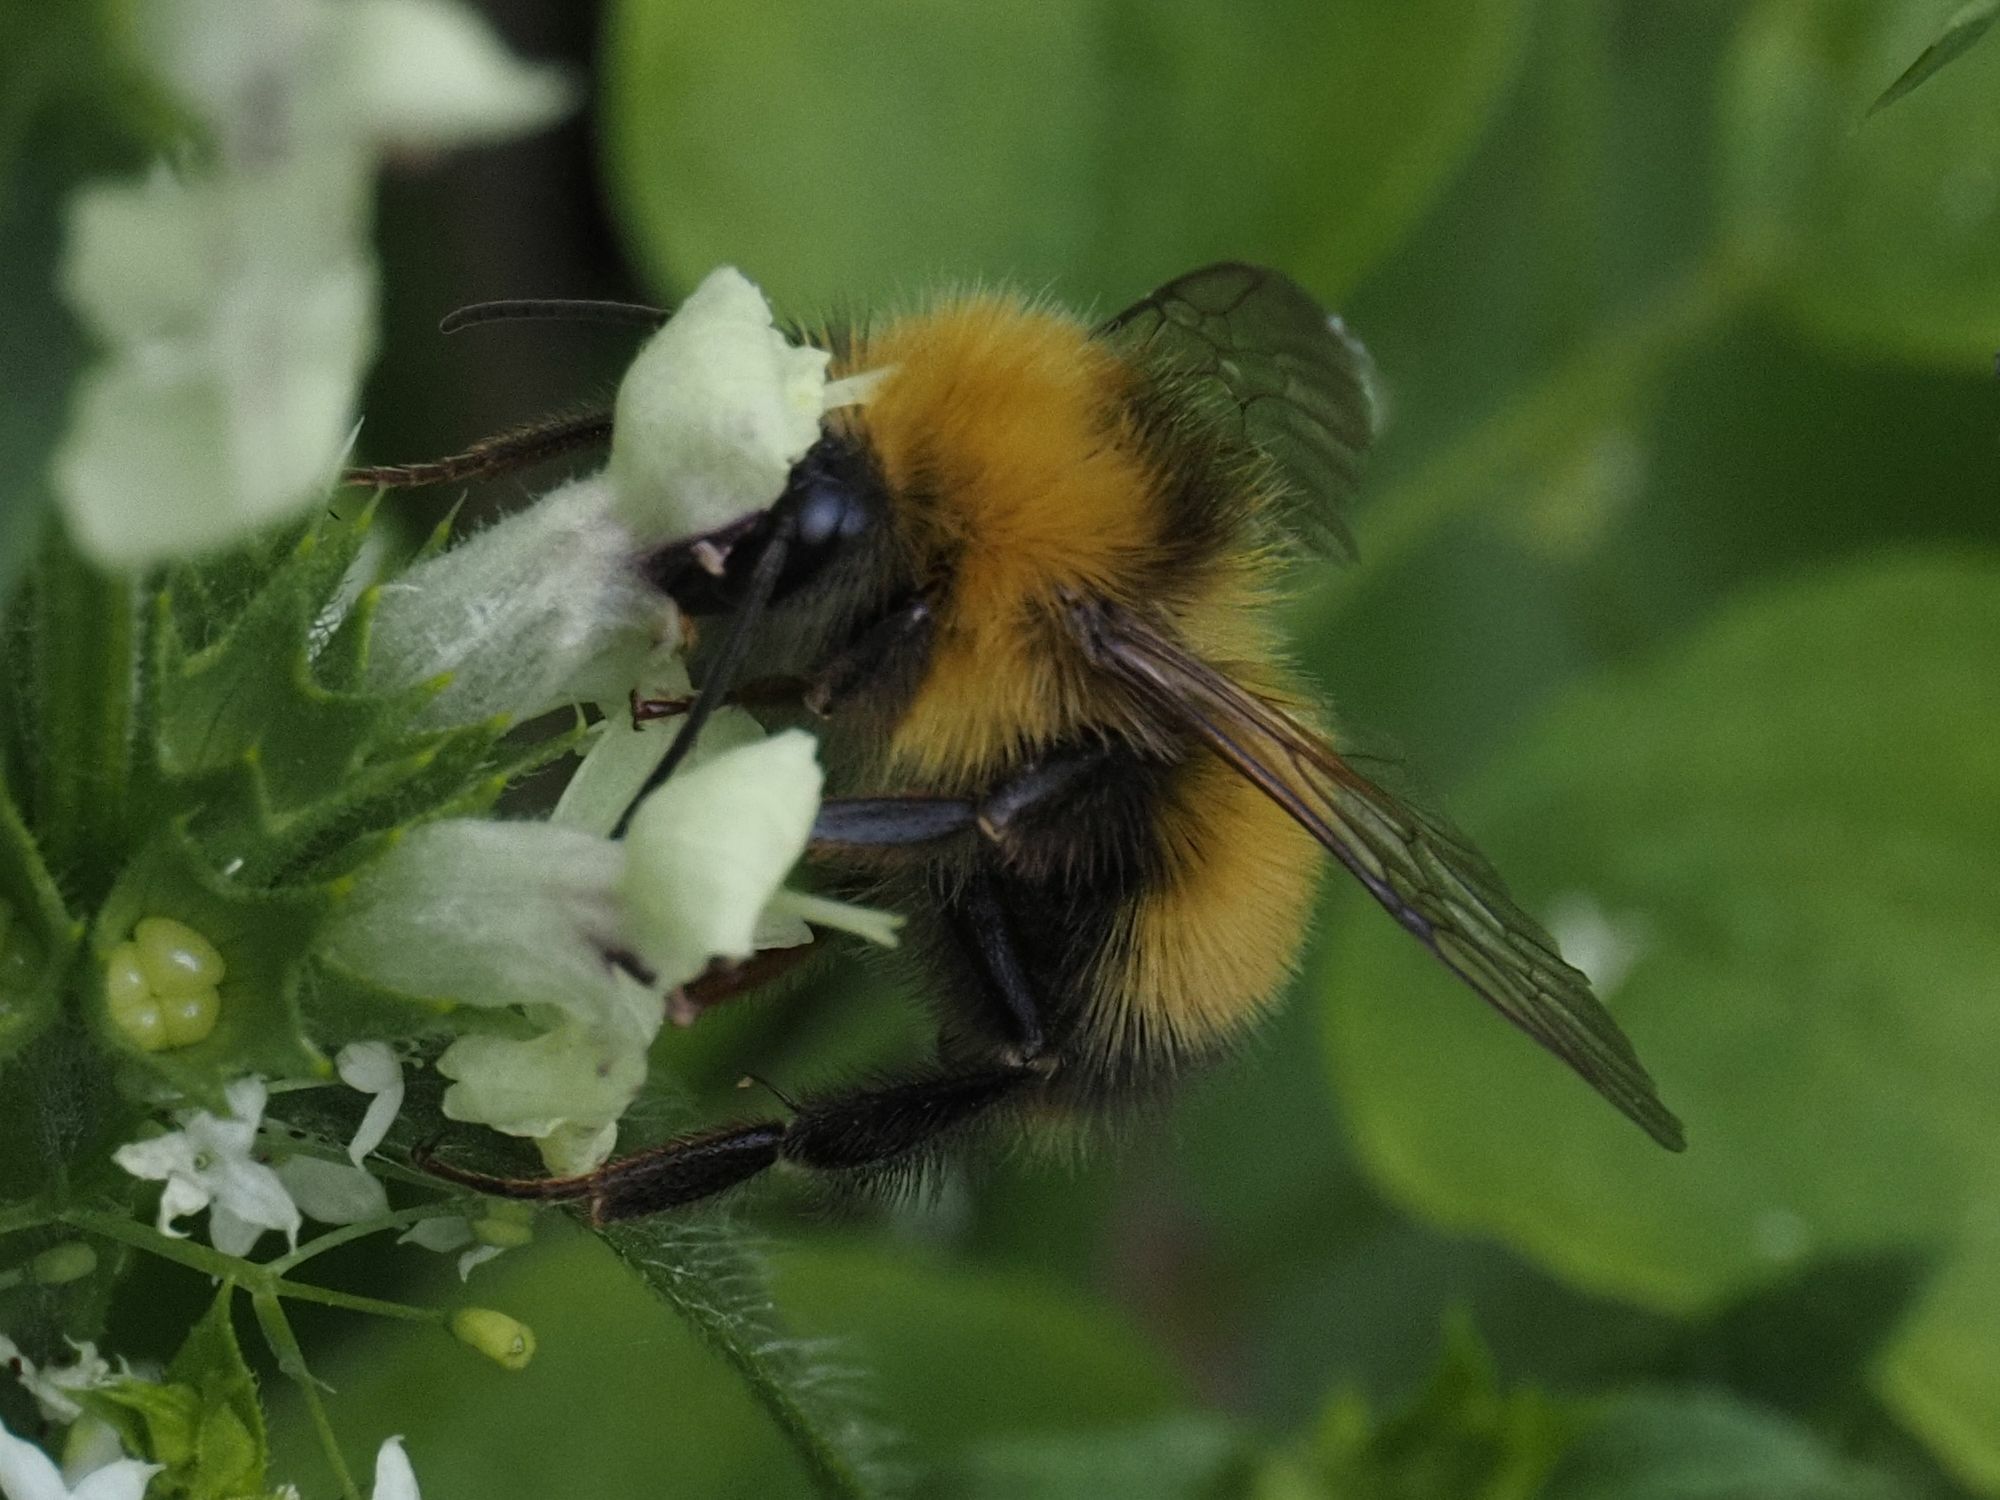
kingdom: Animalia
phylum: Arthropoda
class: Insecta
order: Hymenoptera
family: Apidae
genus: Bombus
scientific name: Bombus haematurus
